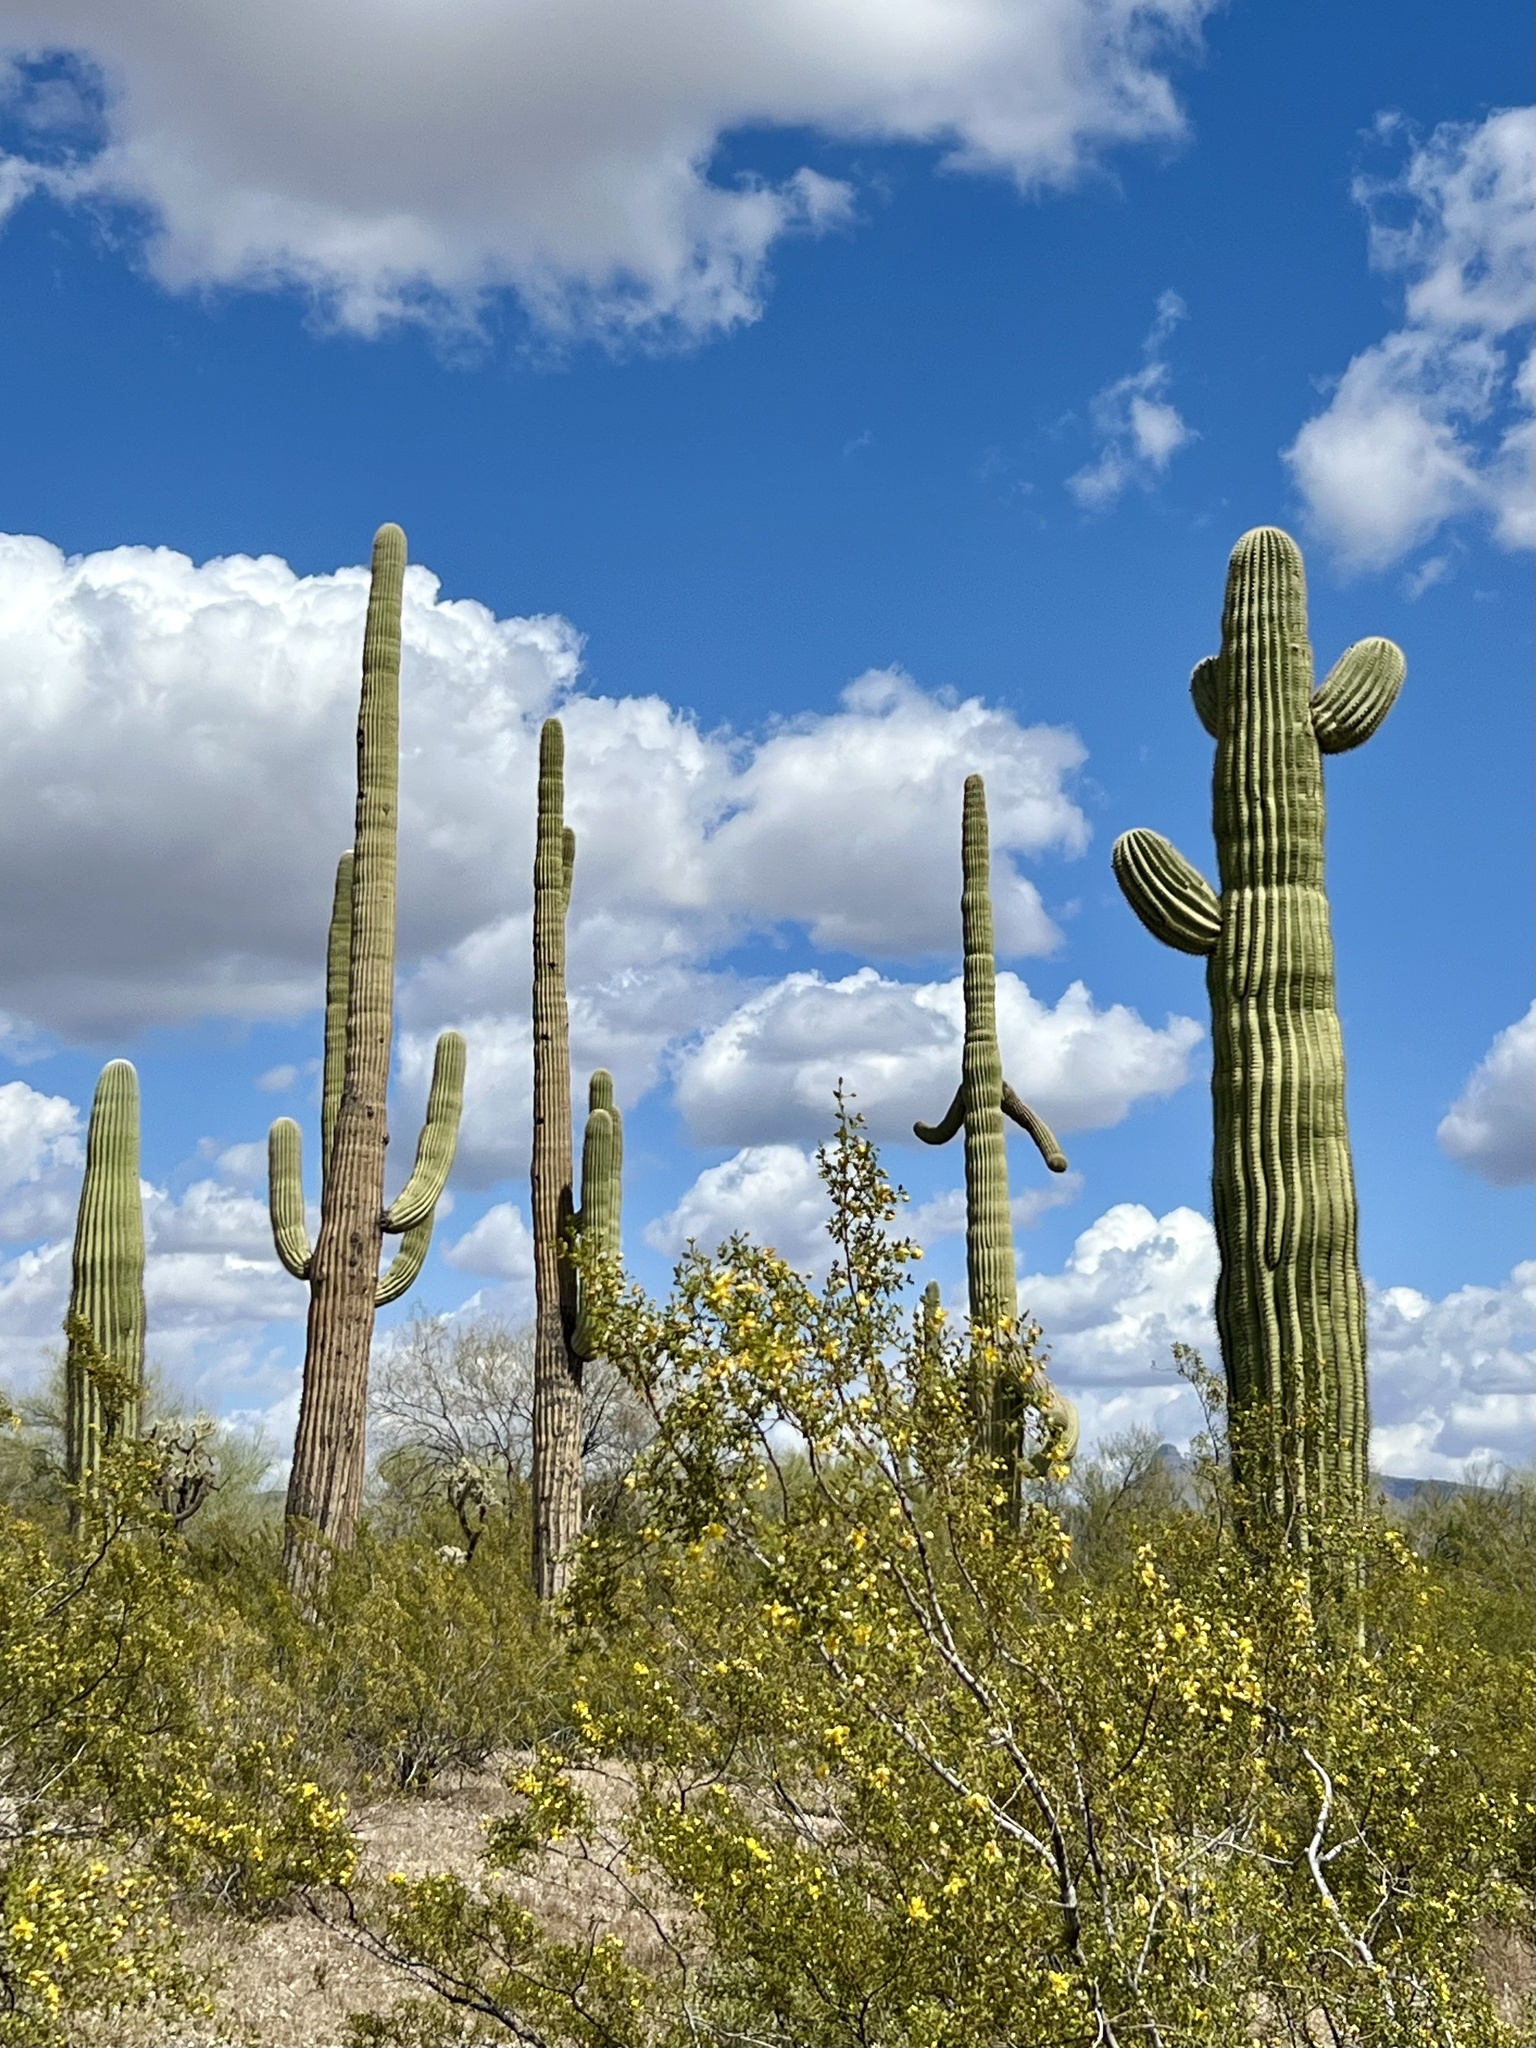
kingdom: Plantae
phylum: Tracheophyta
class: Magnoliopsida
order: Caryophyllales
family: Cactaceae
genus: Carnegiea
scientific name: Carnegiea gigantea
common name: Saguaro
